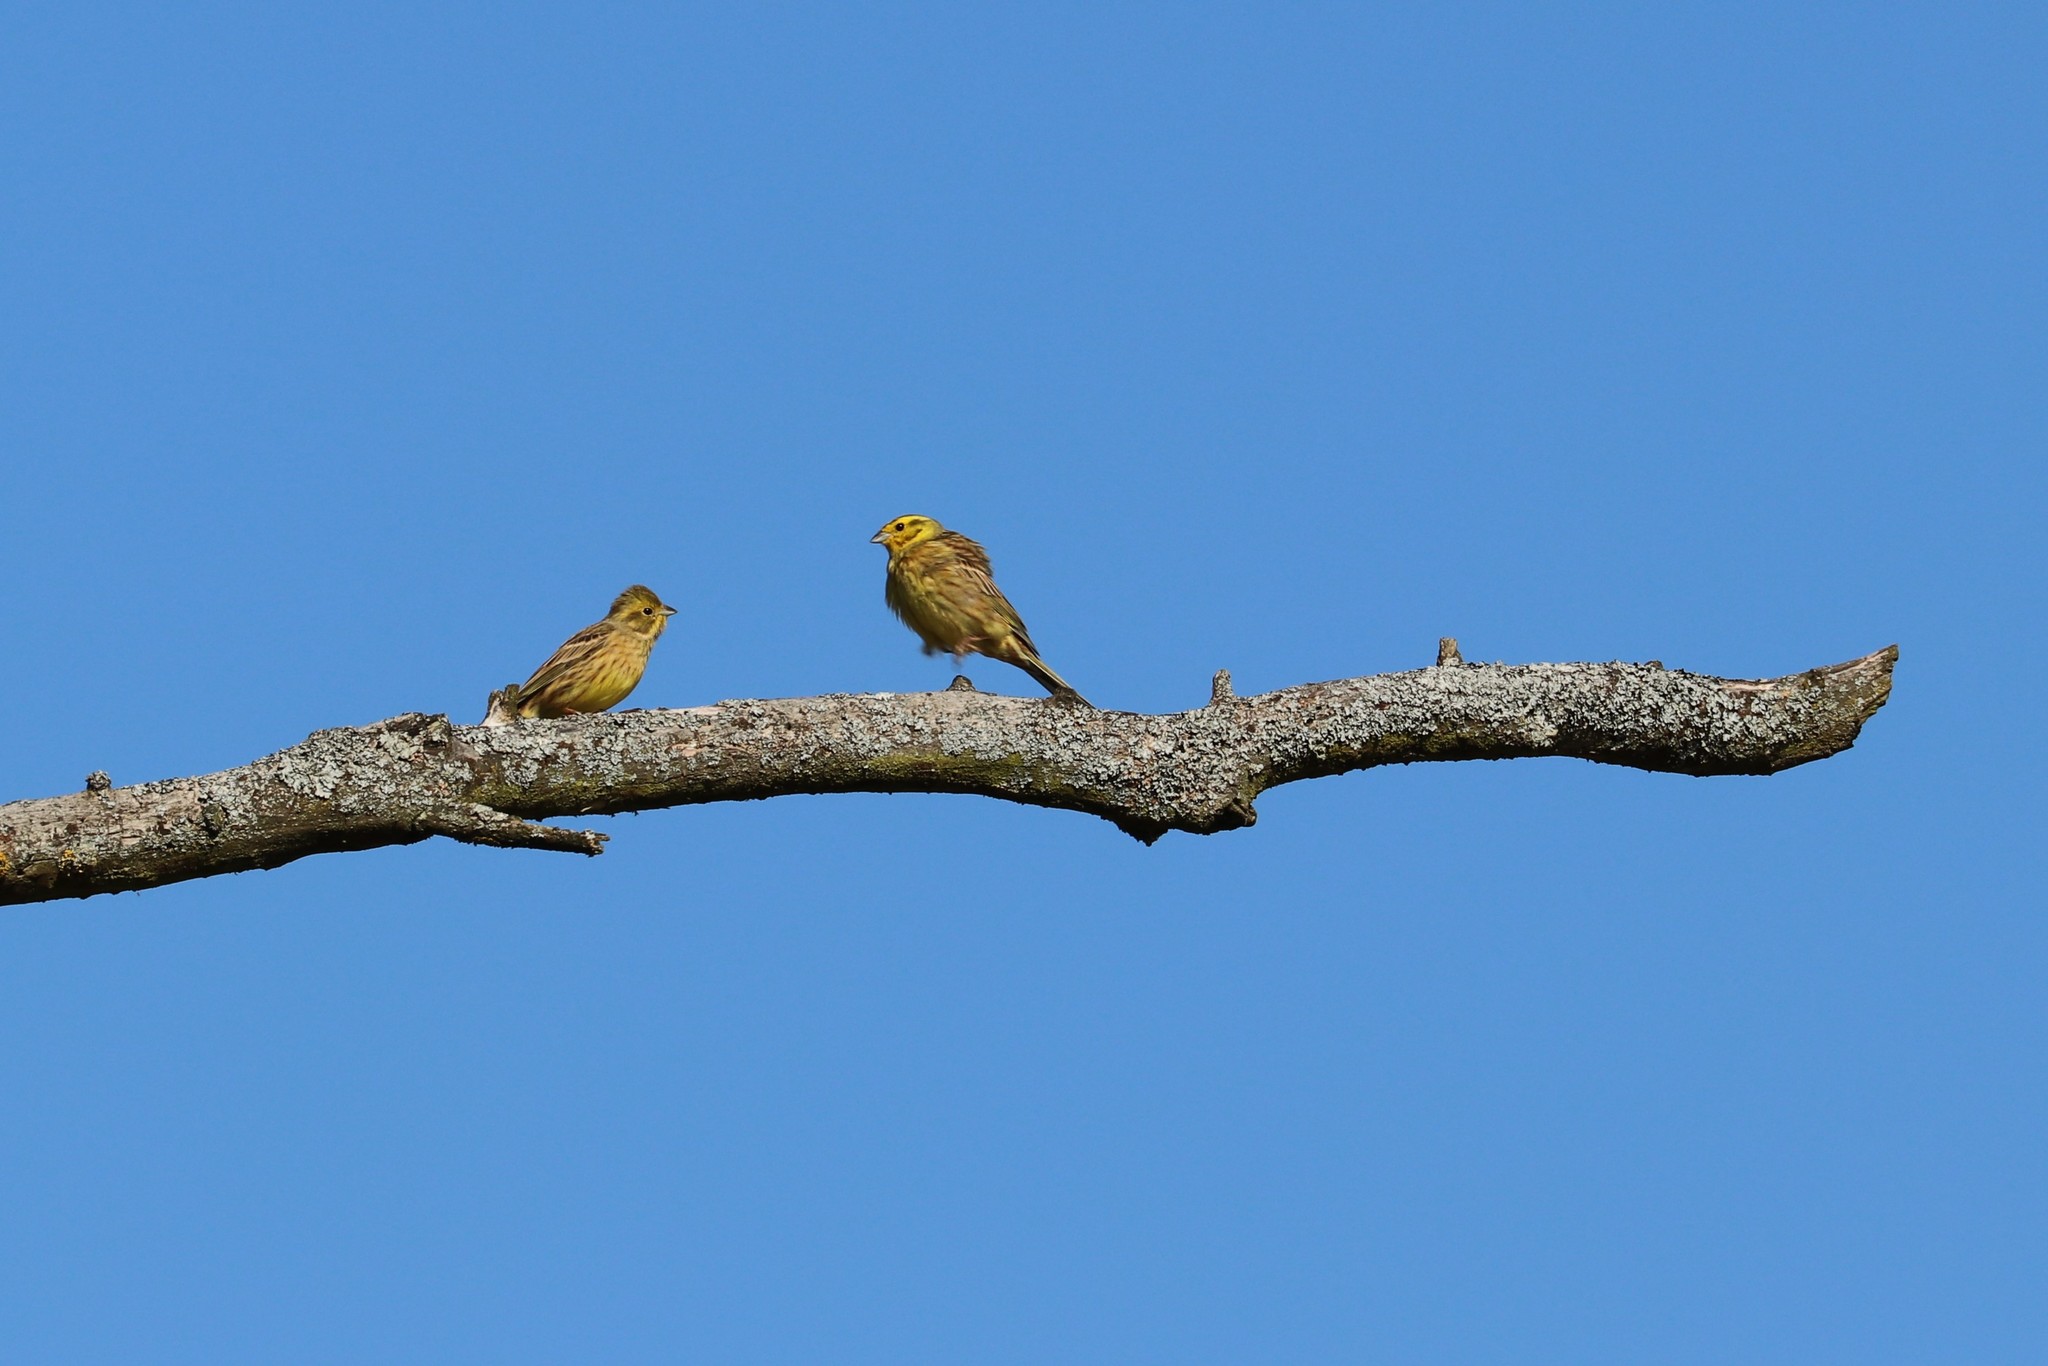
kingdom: Animalia
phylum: Chordata
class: Aves
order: Passeriformes
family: Emberizidae
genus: Emberiza
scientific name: Emberiza citrinella
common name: Yellowhammer
